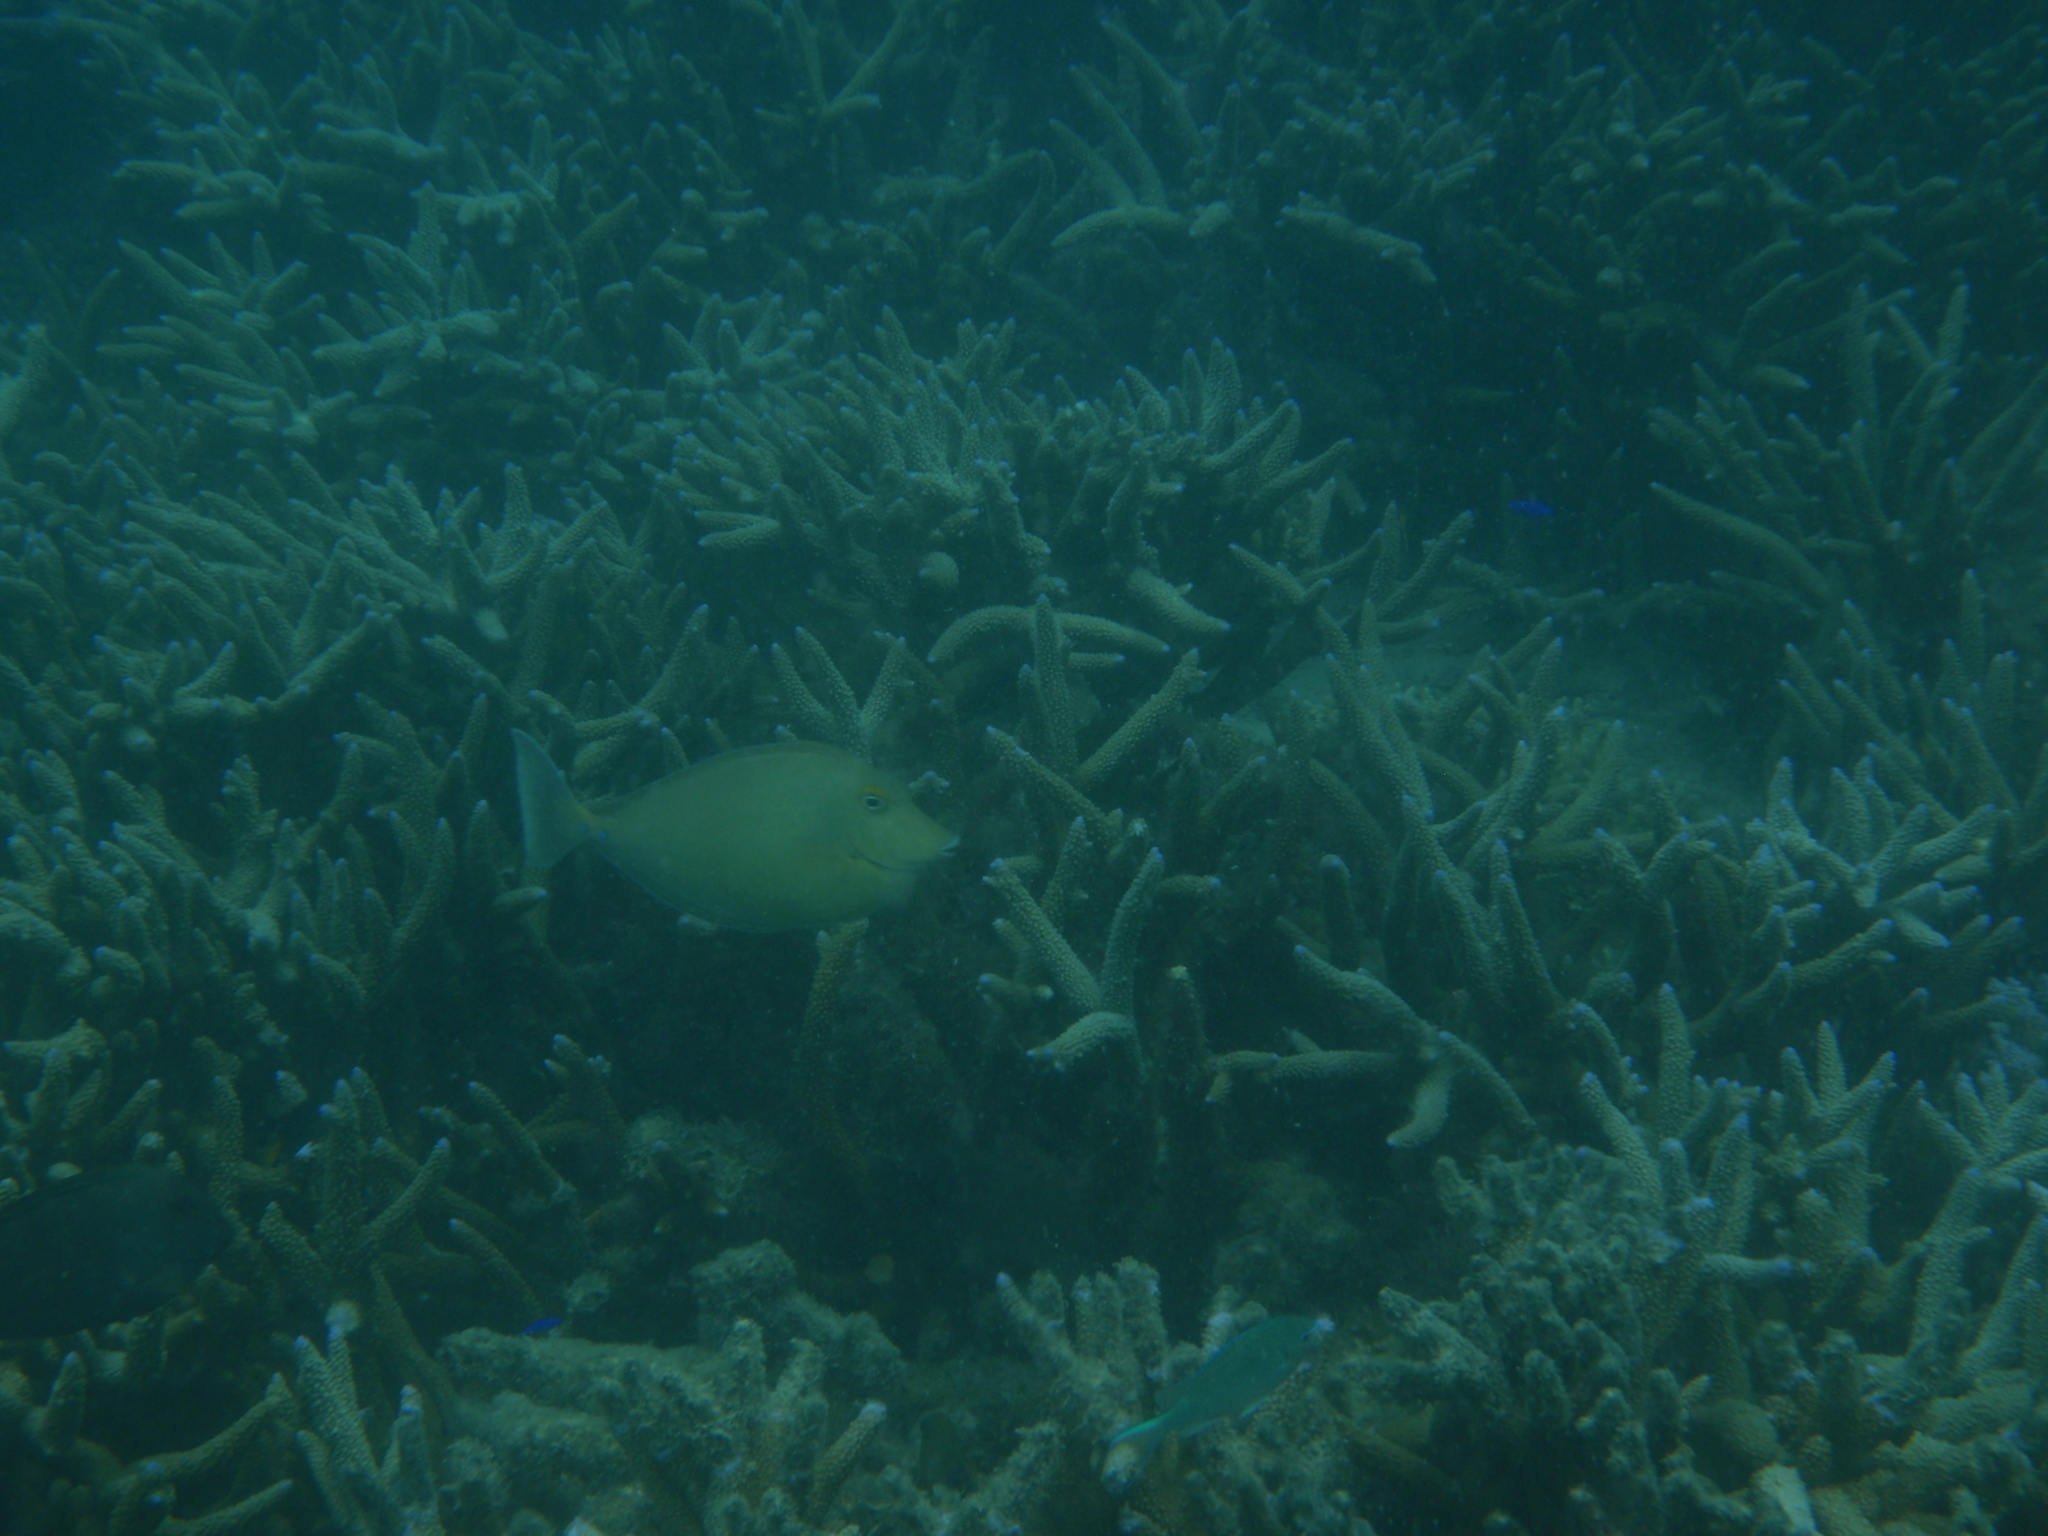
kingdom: Animalia
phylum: Chordata
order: Perciformes
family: Acanthuridae
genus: Naso
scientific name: Naso unicornis
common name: Bluespine unicornfish
